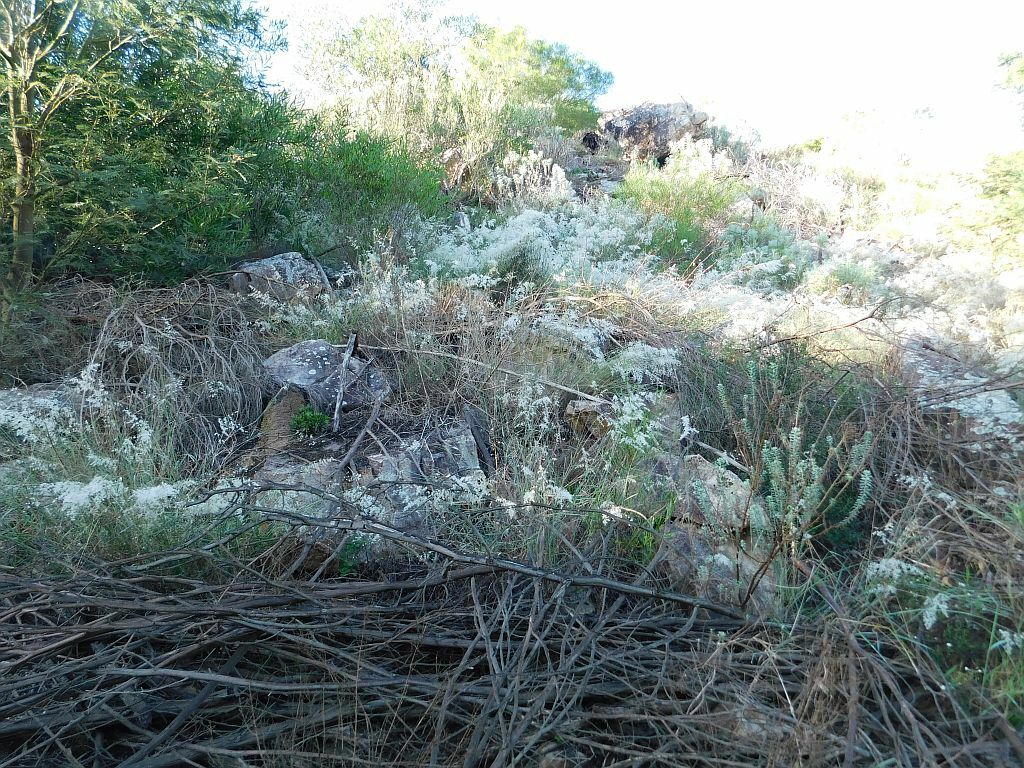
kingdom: Plantae
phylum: Tracheophyta
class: Liliopsida
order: Poales
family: Poaceae
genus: Melinis
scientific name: Melinis repens
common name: Rose natal grass
